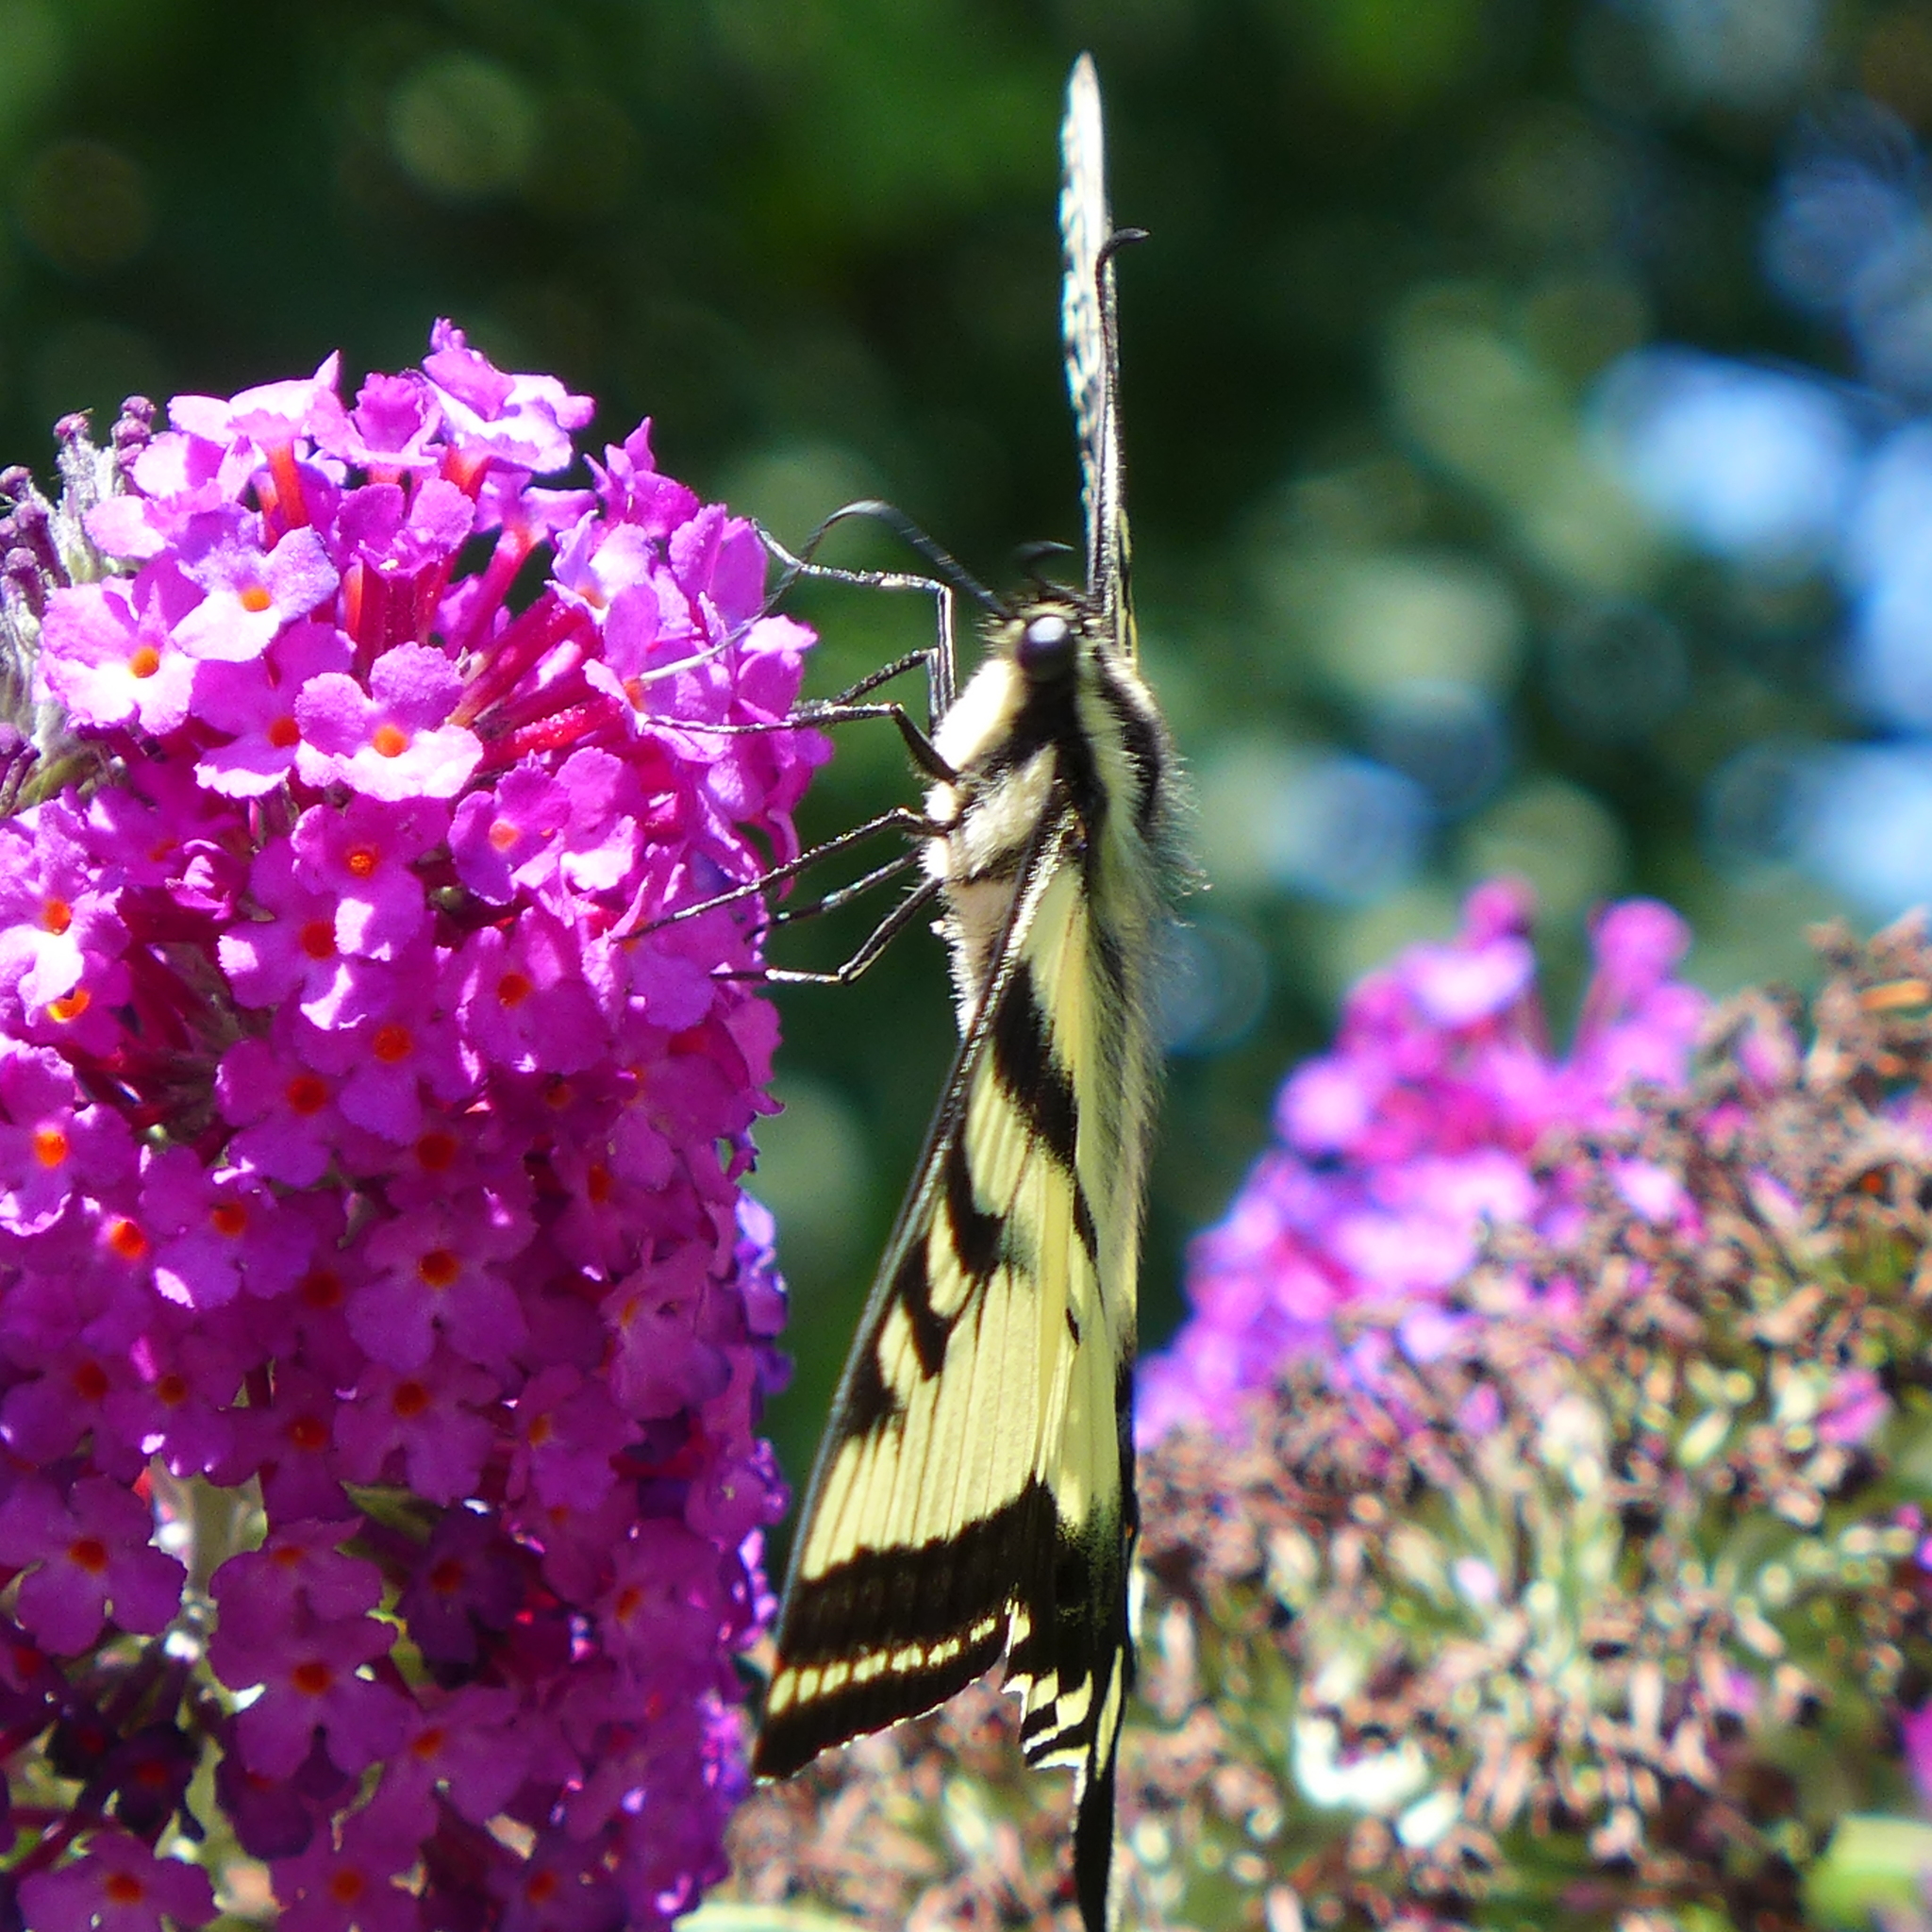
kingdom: Animalia
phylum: Arthropoda
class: Insecta
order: Lepidoptera
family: Papilionidae
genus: Papilio
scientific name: Papilio rutulus
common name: Western tiger swallowtail
